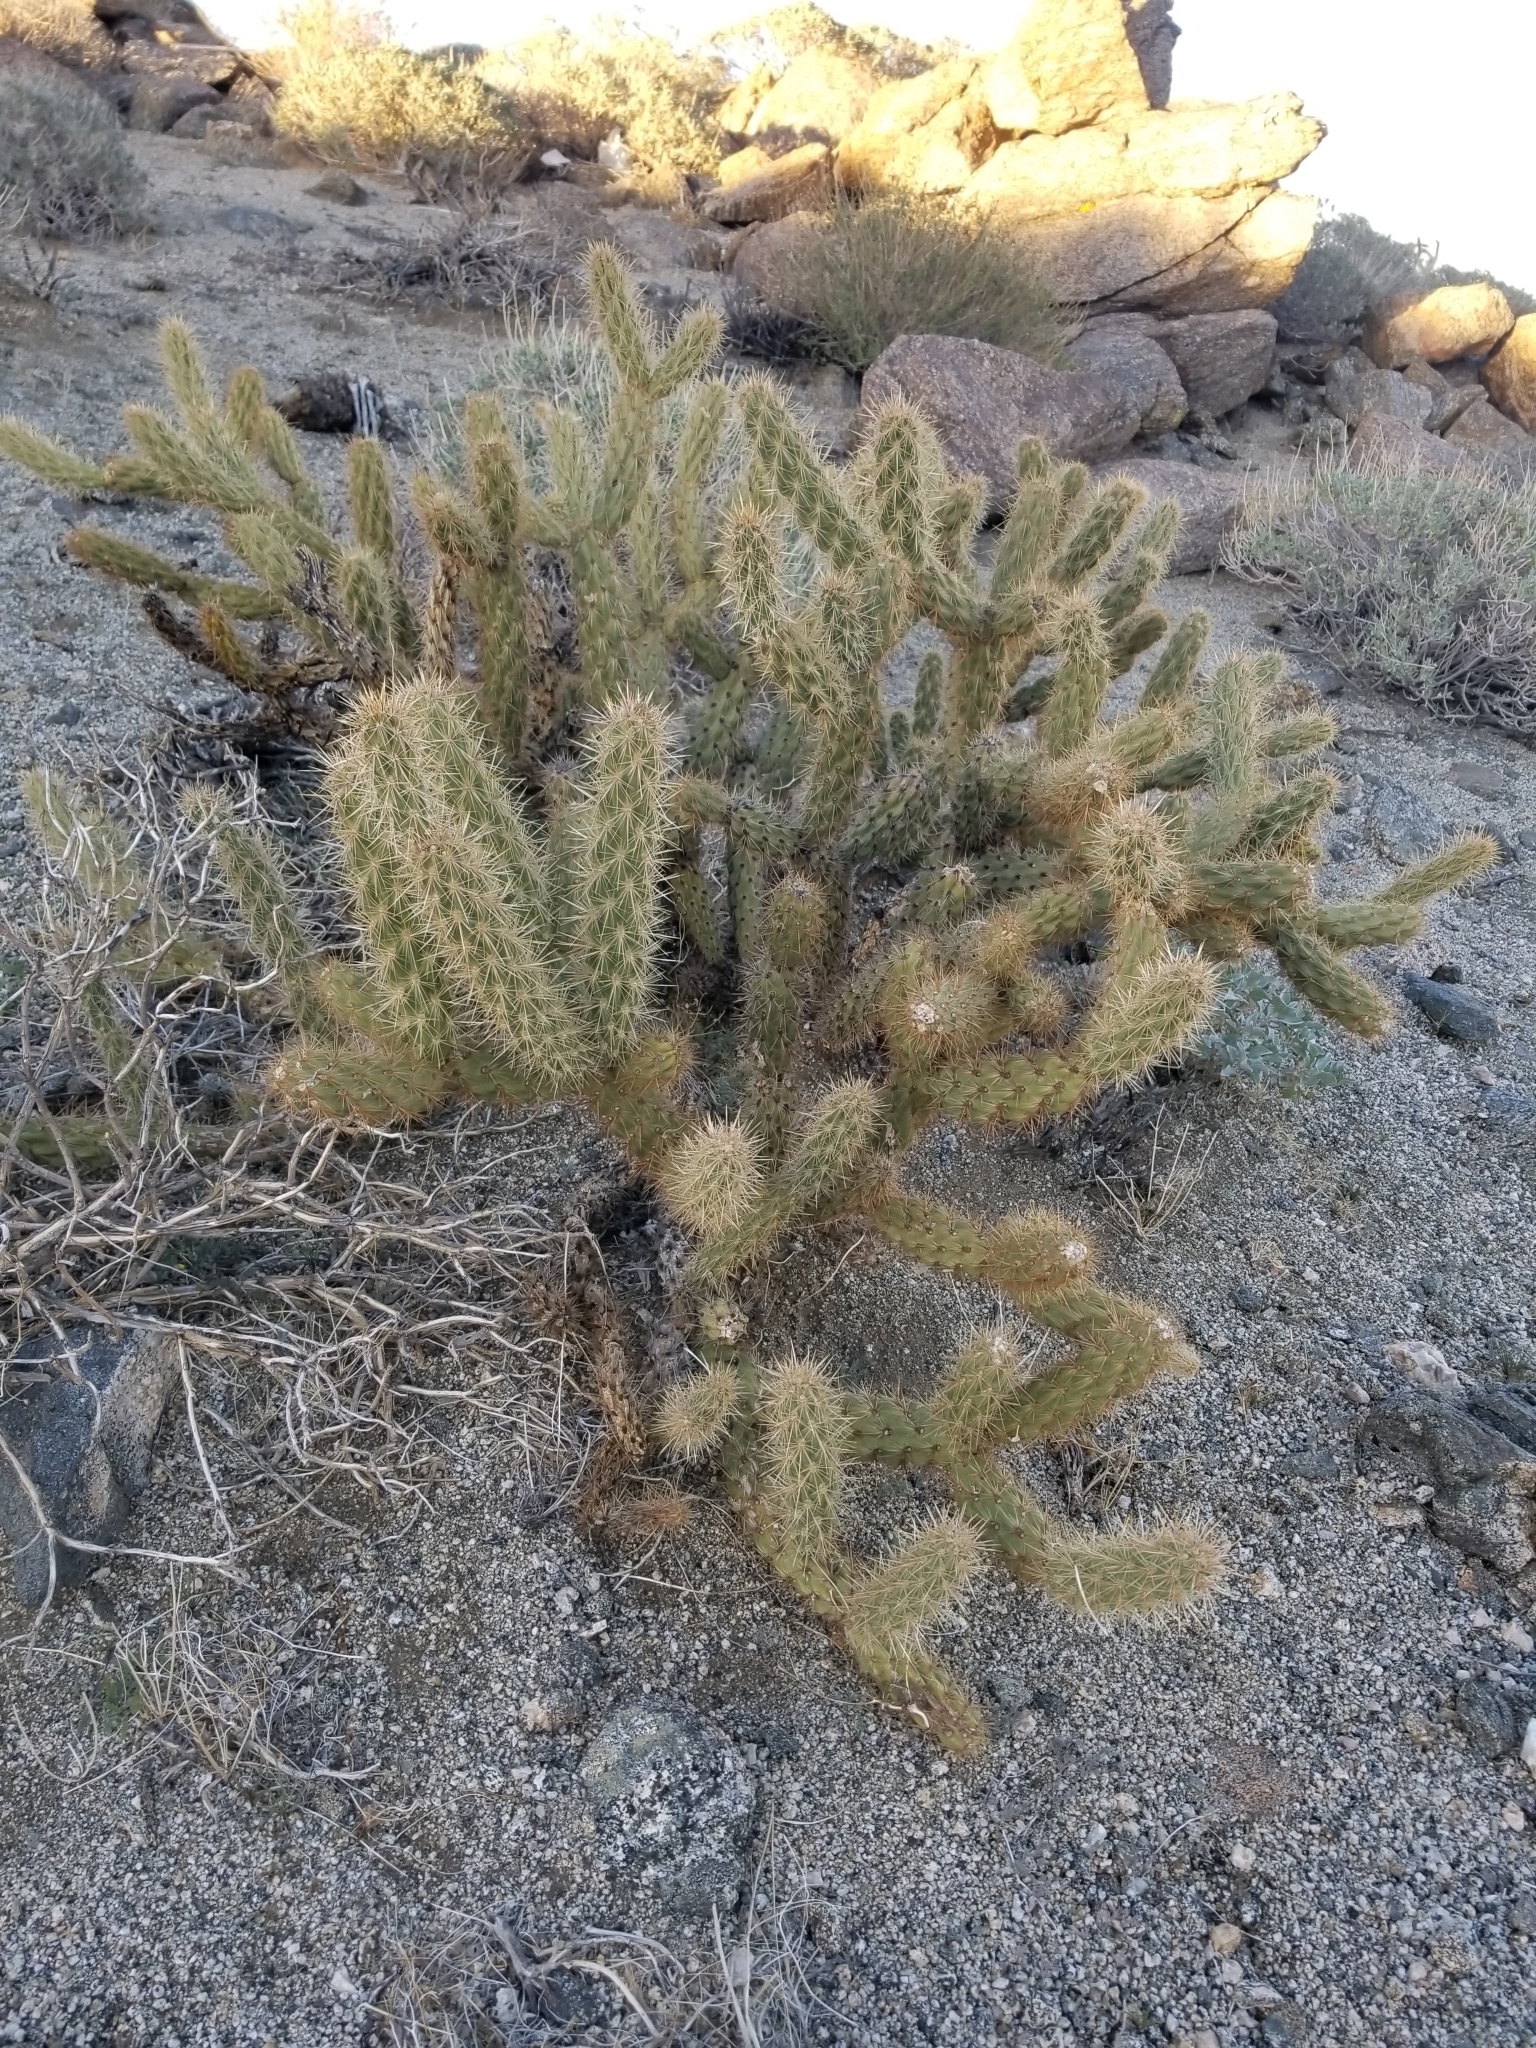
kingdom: Plantae
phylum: Tracheophyta
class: Magnoliopsida
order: Caryophyllales
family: Cactaceae
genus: Cylindropuntia
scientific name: Cylindropuntia ganderi
